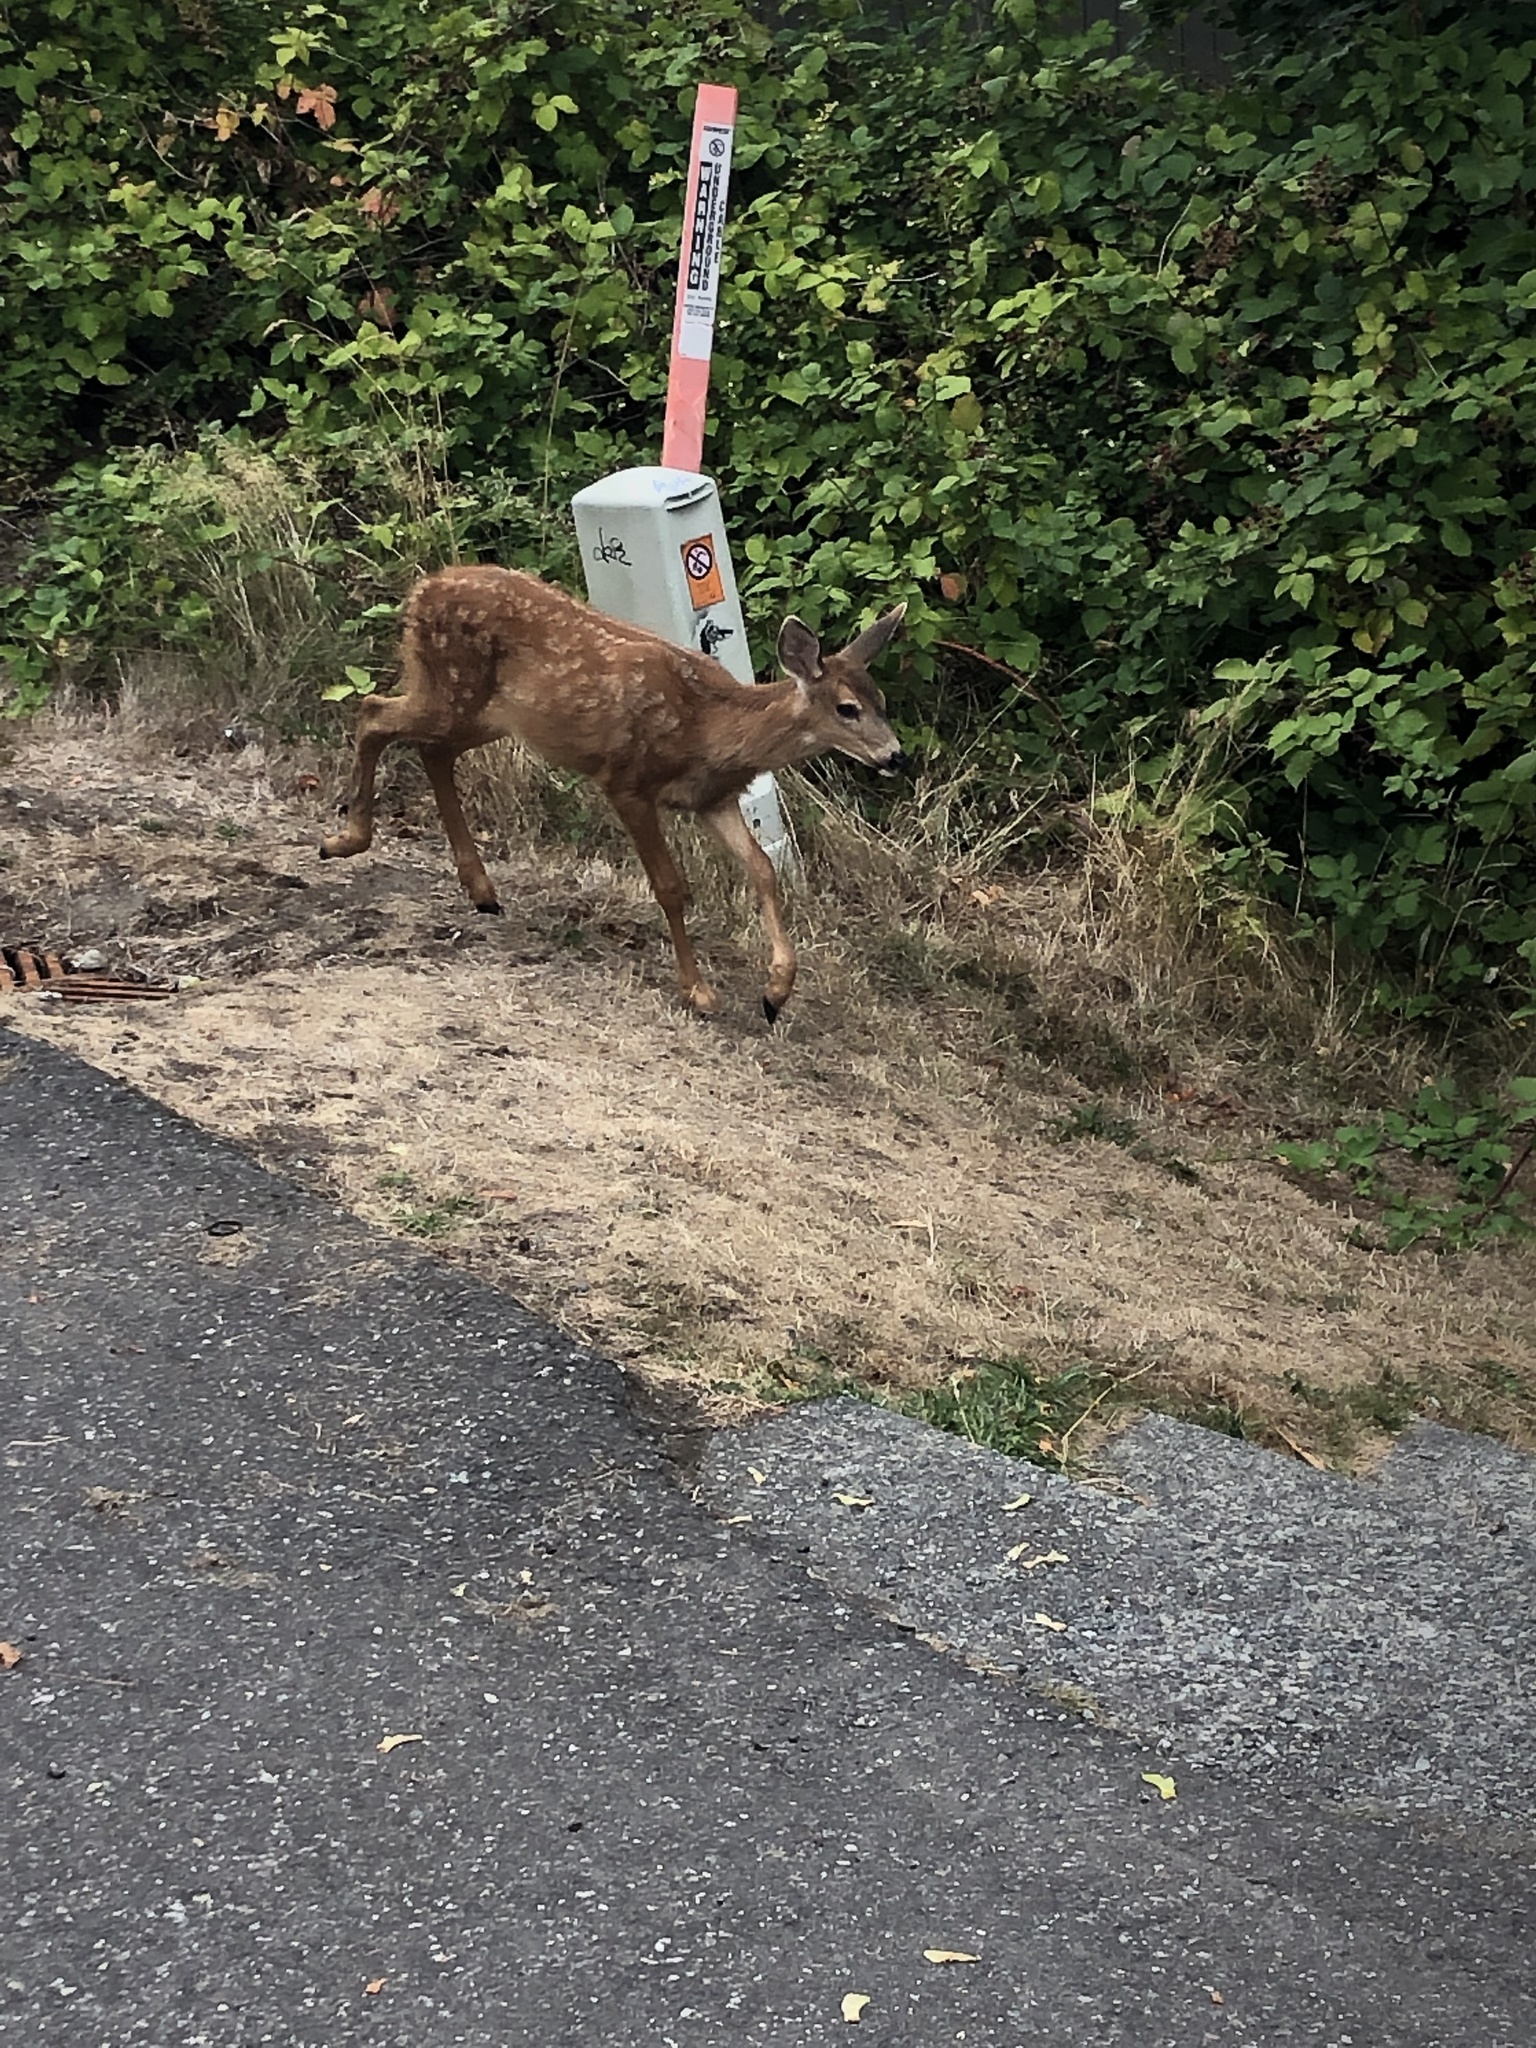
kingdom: Animalia
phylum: Chordata
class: Mammalia
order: Artiodactyla
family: Cervidae
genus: Odocoileus
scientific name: Odocoileus hemionus
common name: Mule deer
